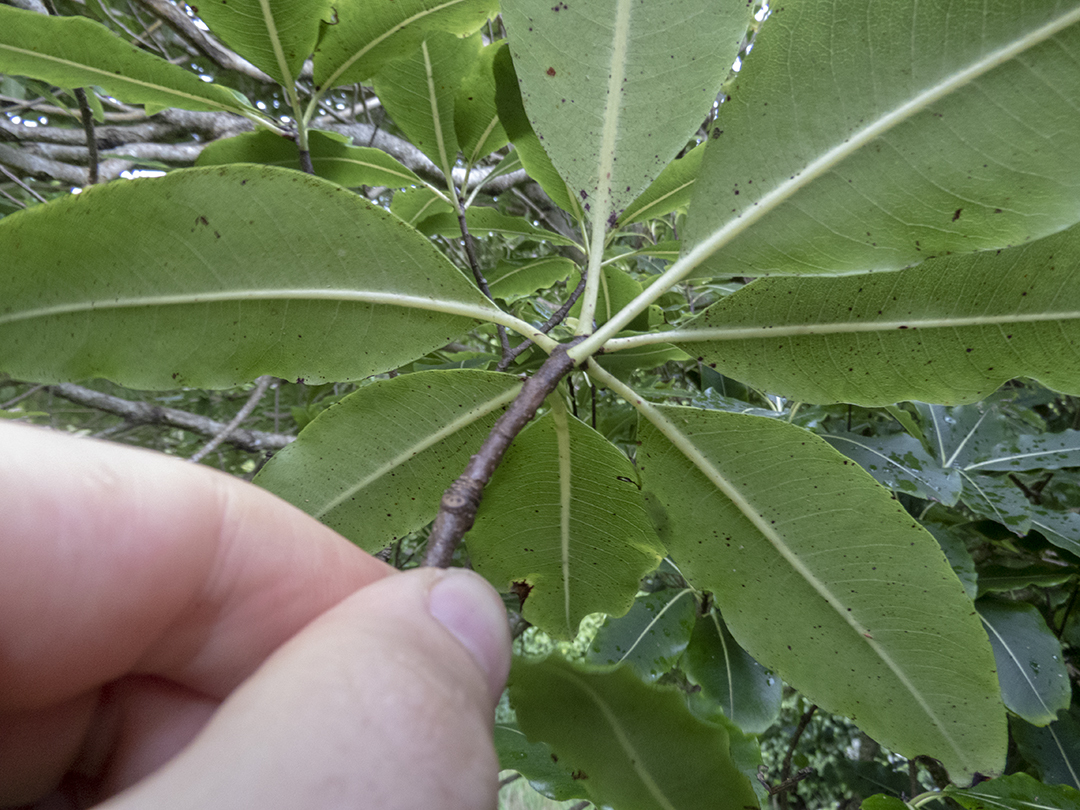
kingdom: Plantae
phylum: Tracheophyta
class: Magnoliopsida
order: Apiales
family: Pittosporaceae
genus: Pittosporum
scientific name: Pittosporum eugenioides
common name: Lemonwood
